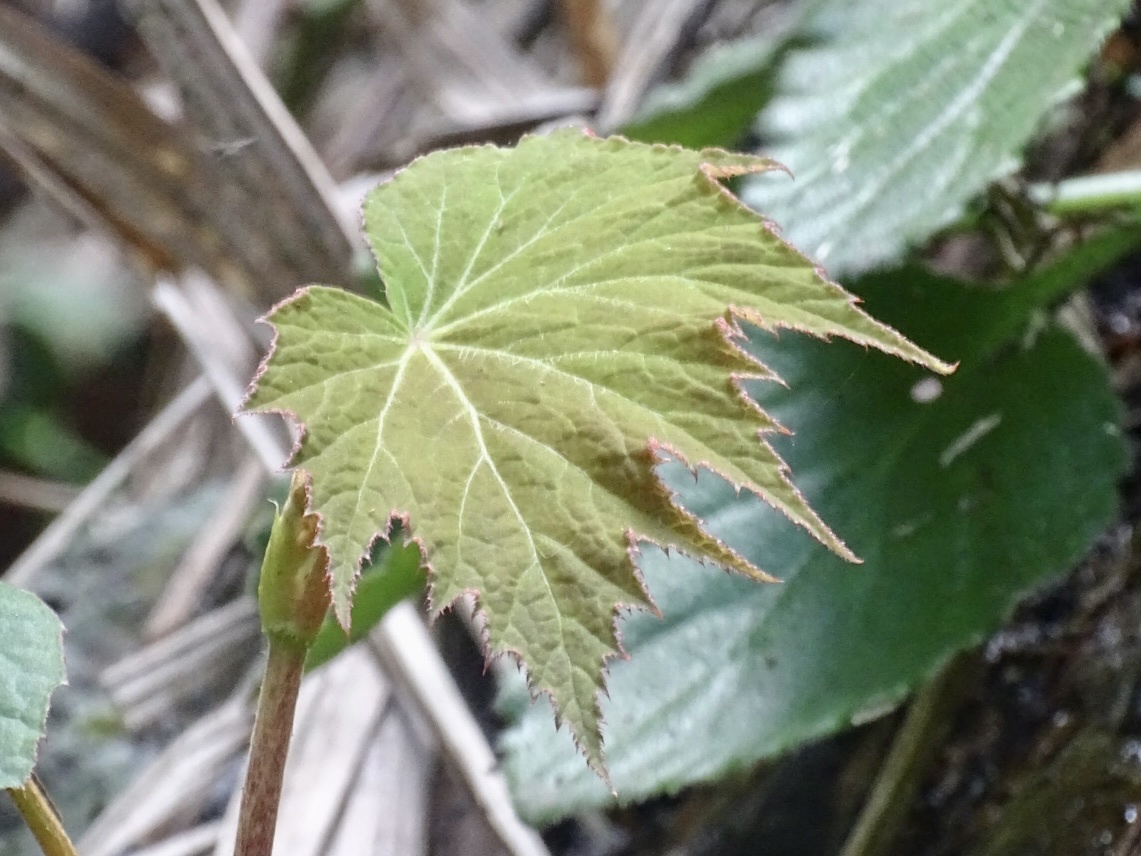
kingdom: Plantae
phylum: Tracheophyta
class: Magnoliopsida
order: Cucurbitales
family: Begoniaceae
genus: Begonia
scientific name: Begonia palmata
